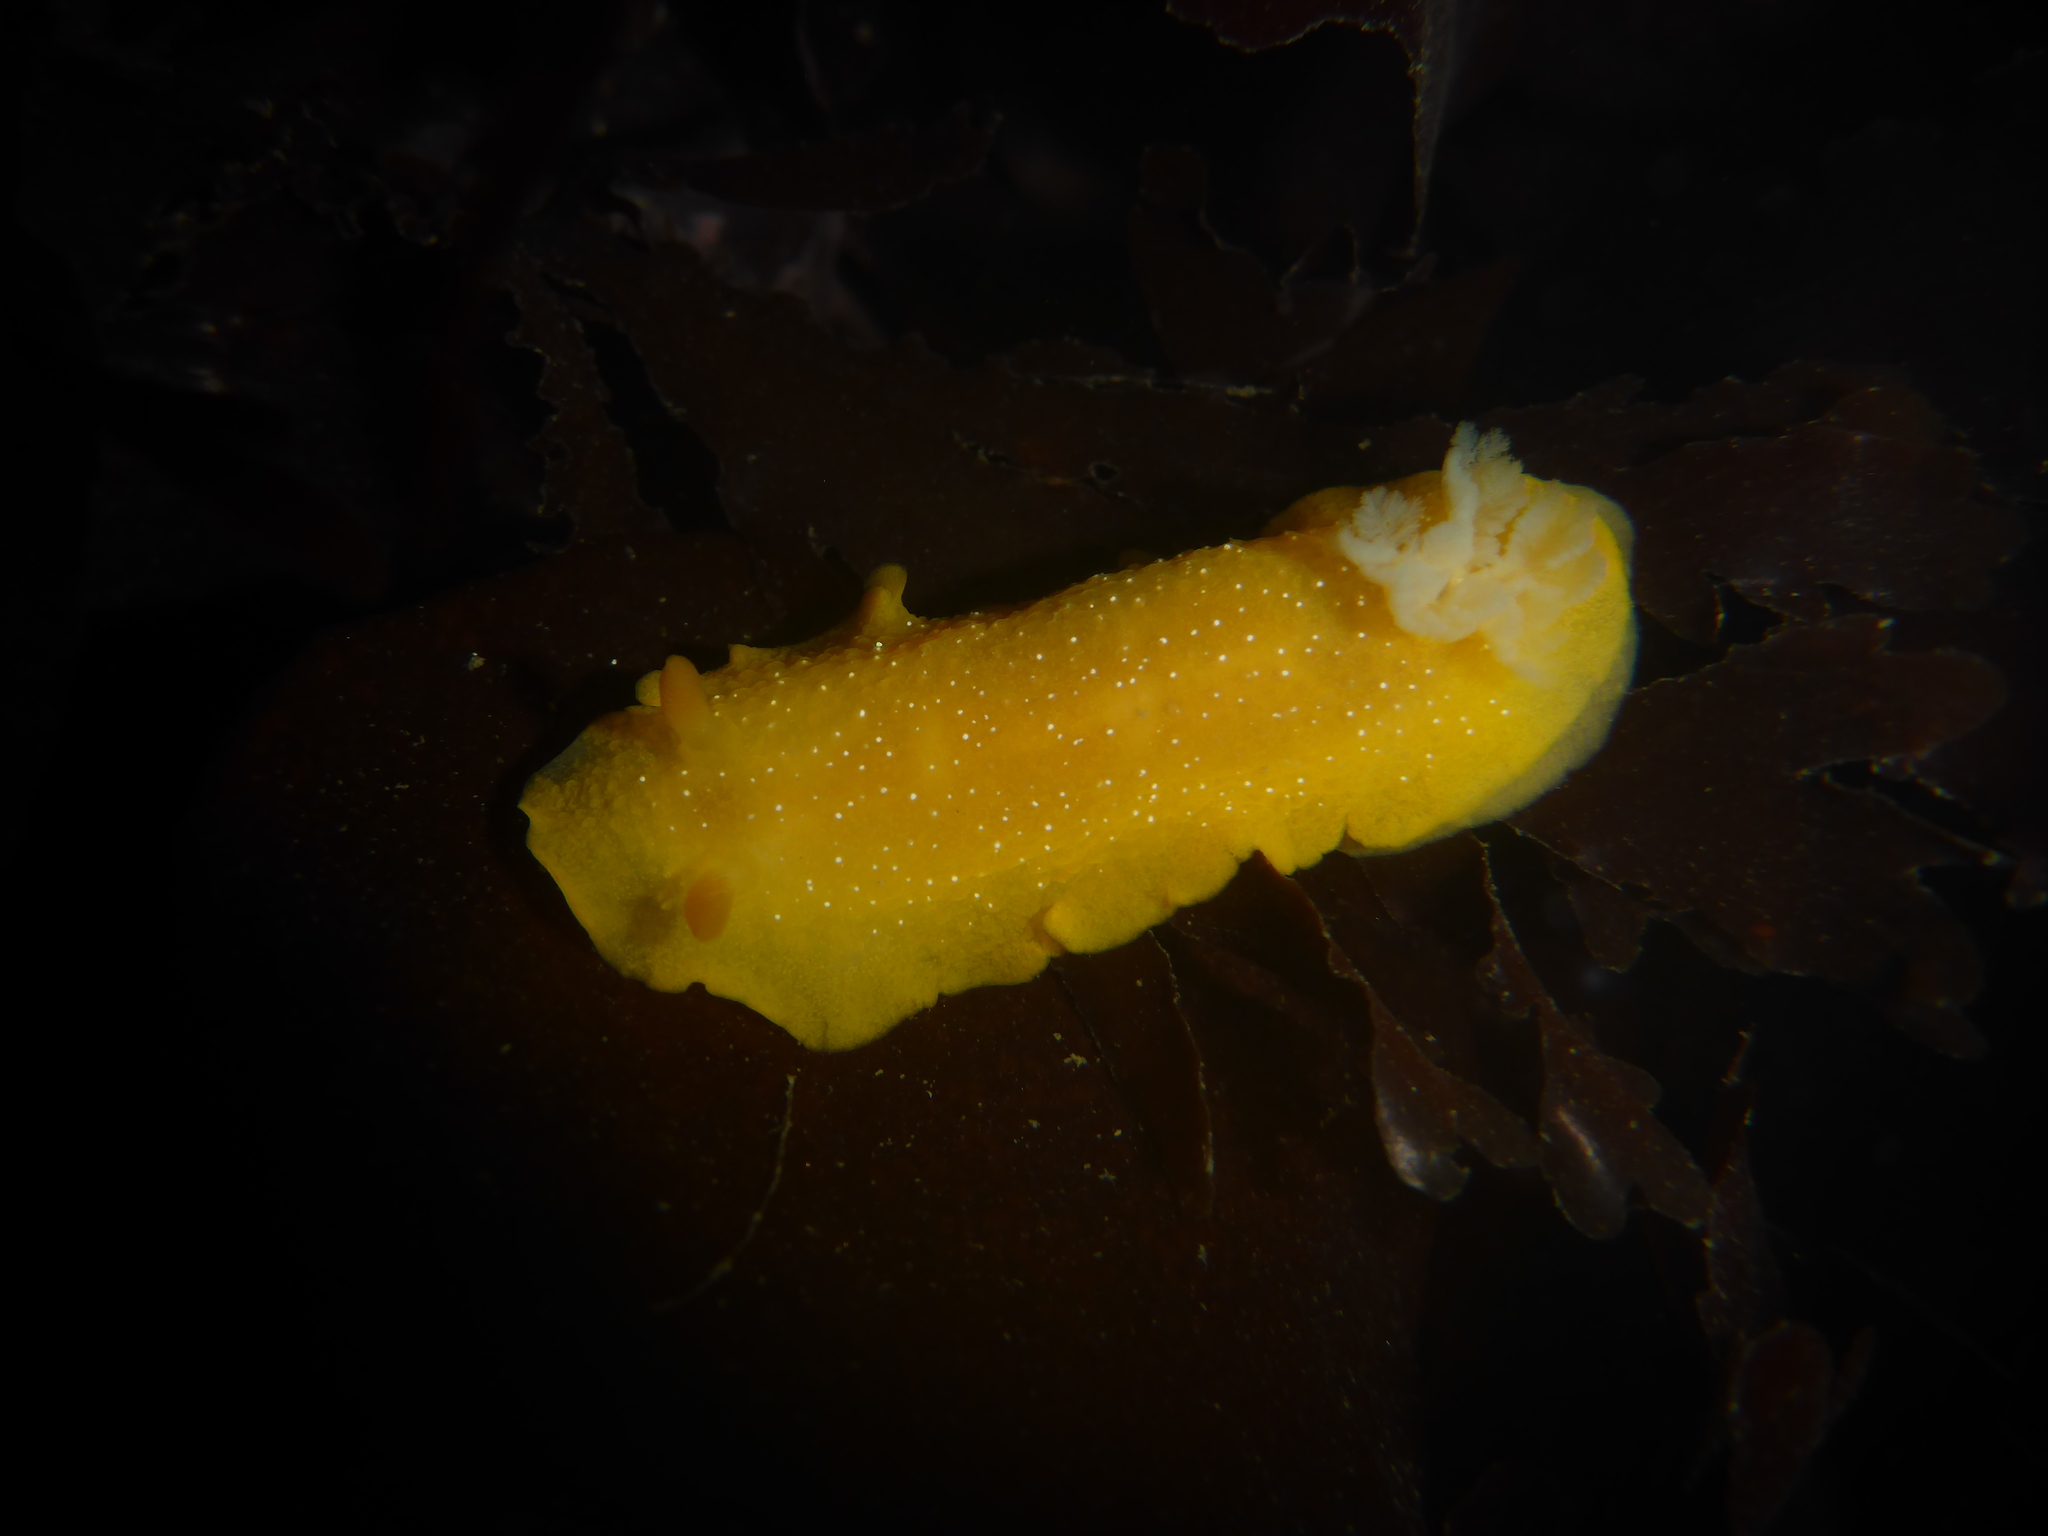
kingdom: Animalia
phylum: Mollusca
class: Gastropoda
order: Nudibranchia
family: Dendrodorididae
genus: Doriopsilla
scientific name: Doriopsilla fulva
